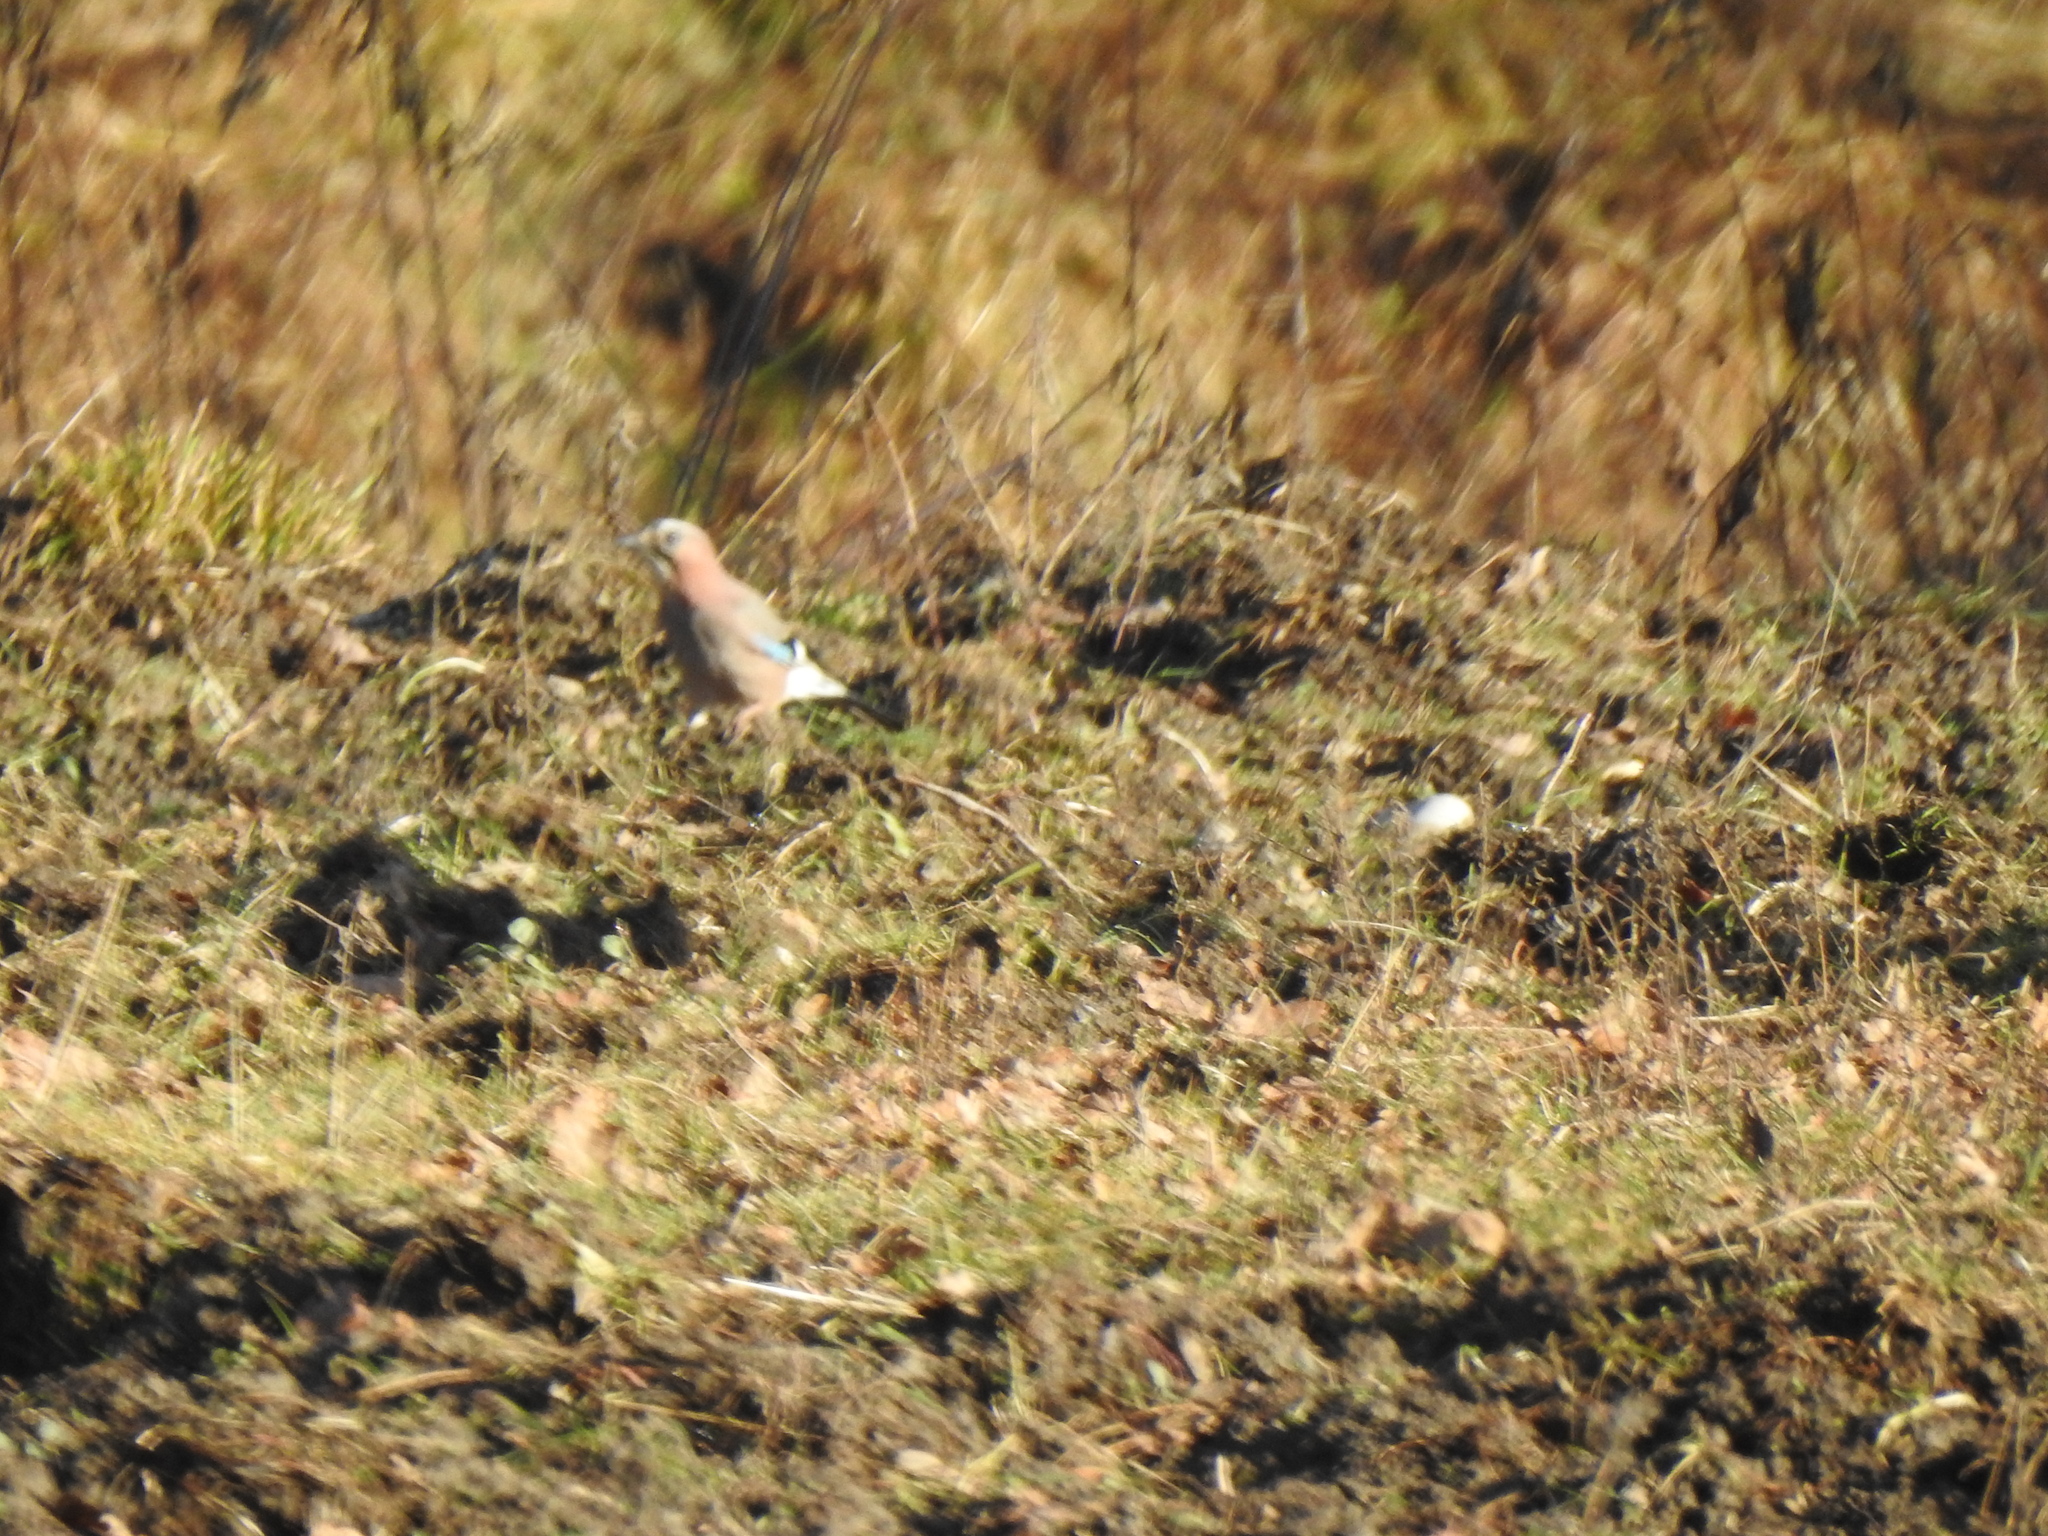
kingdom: Animalia
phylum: Chordata
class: Aves
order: Passeriformes
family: Corvidae
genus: Garrulus
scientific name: Garrulus glandarius
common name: Eurasian jay
